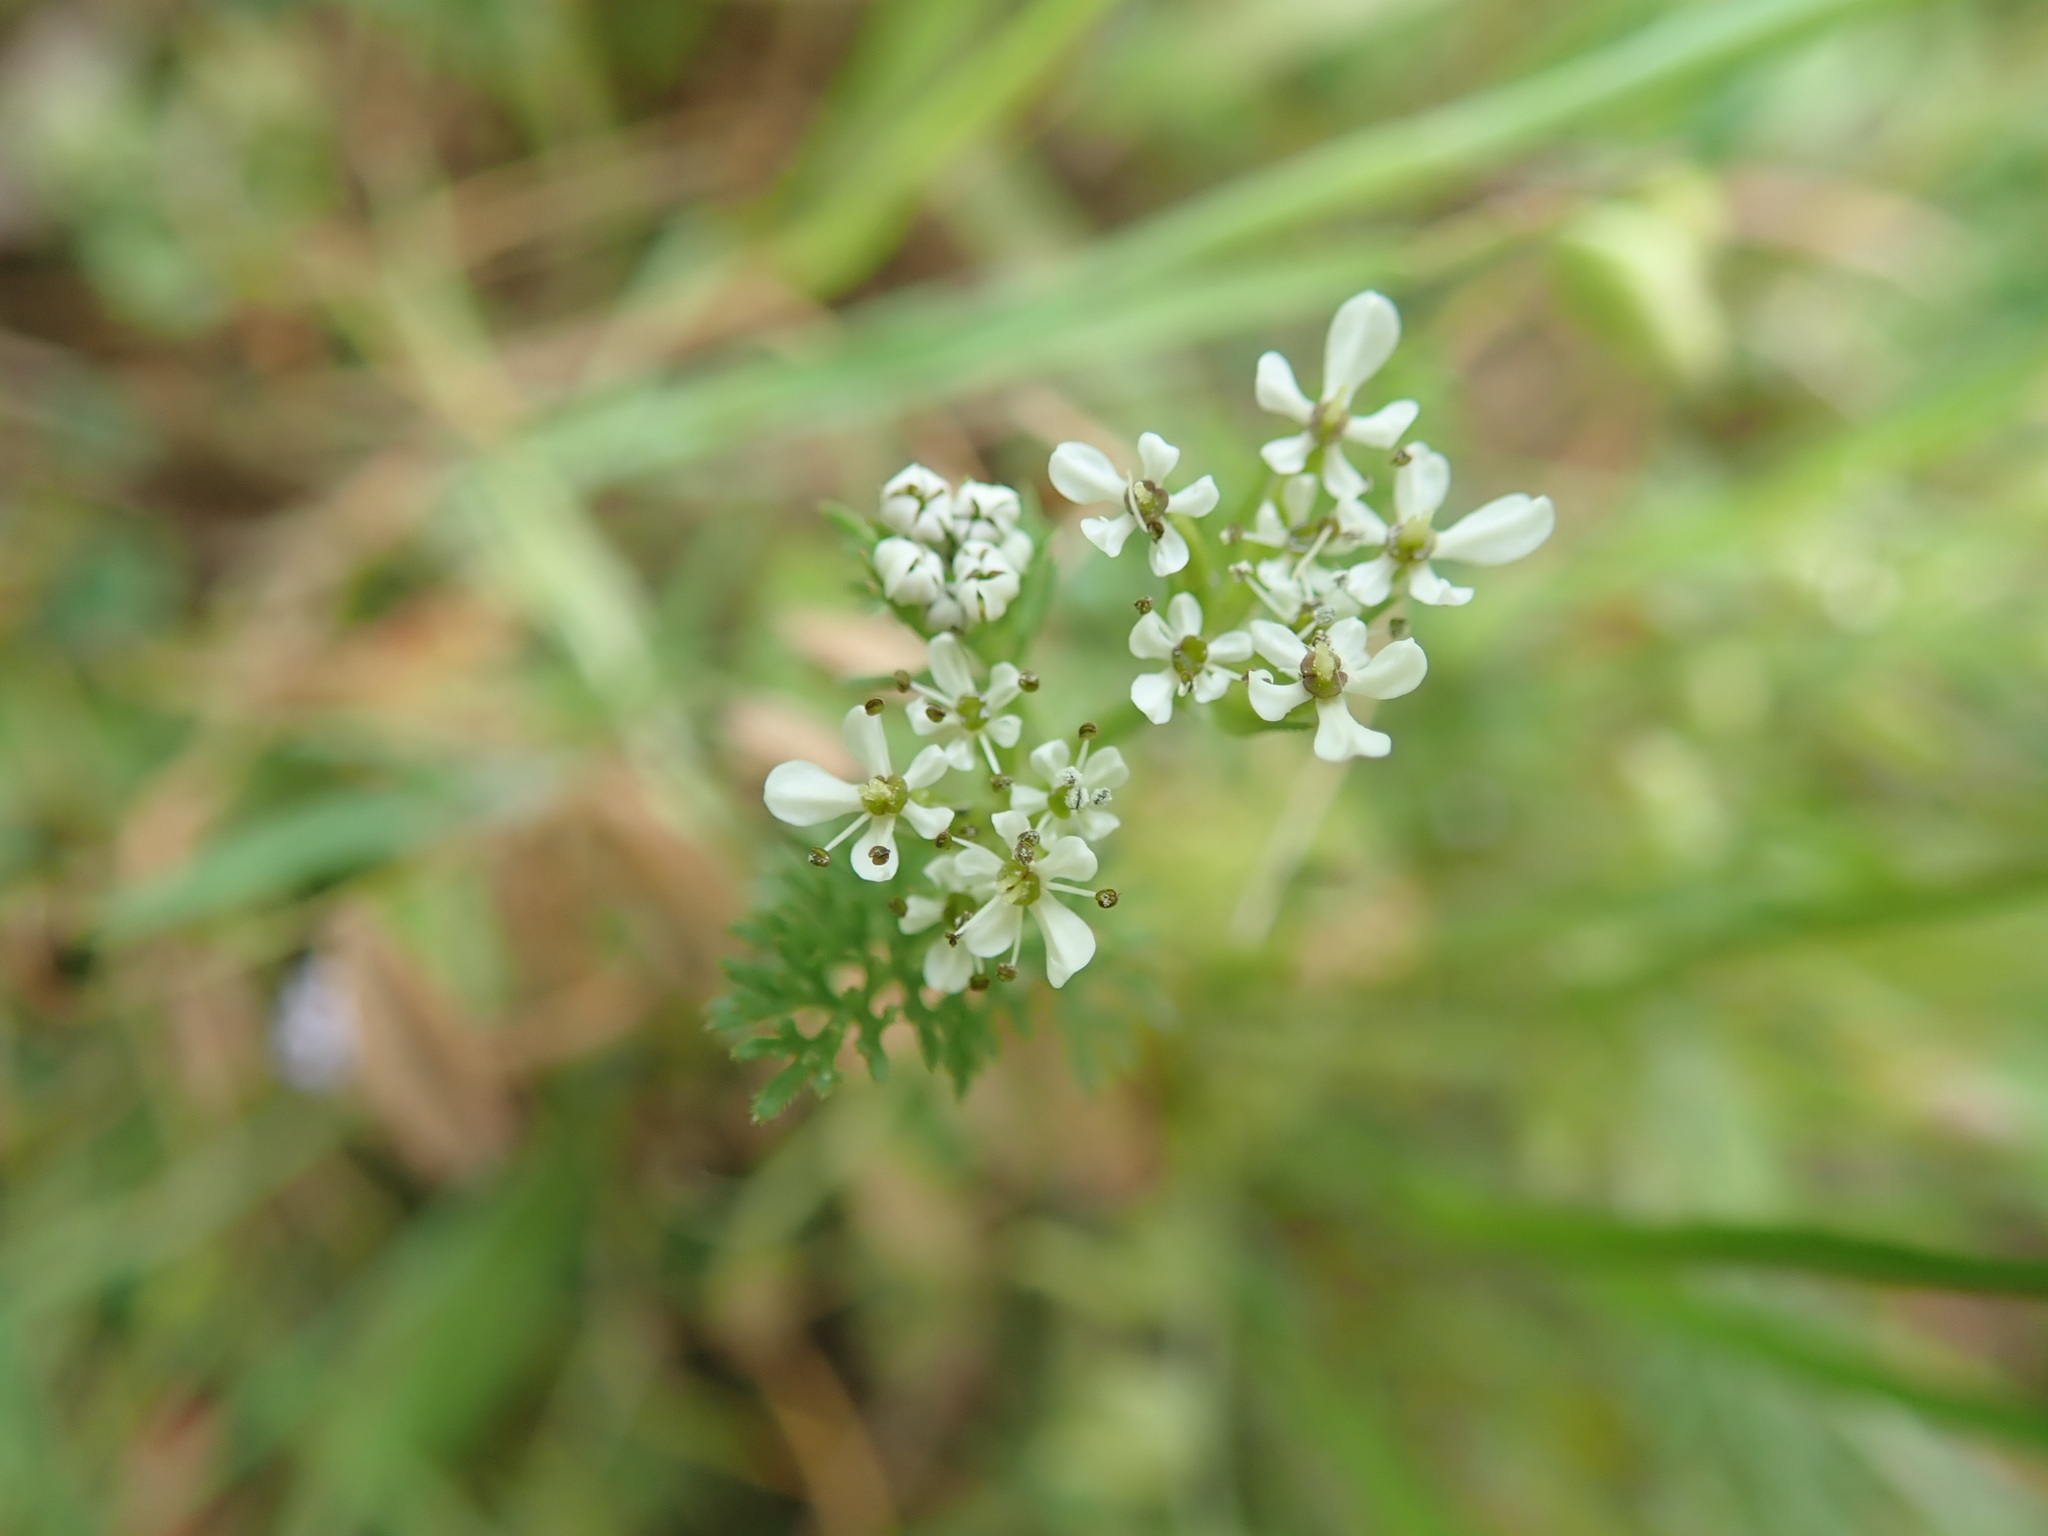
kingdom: Plantae
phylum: Tracheophyta
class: Magnoliopsida
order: Apiales
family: Apiaceae
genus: Scandix
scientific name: Scandix pecten-veneris
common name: Shepherd's-needle
